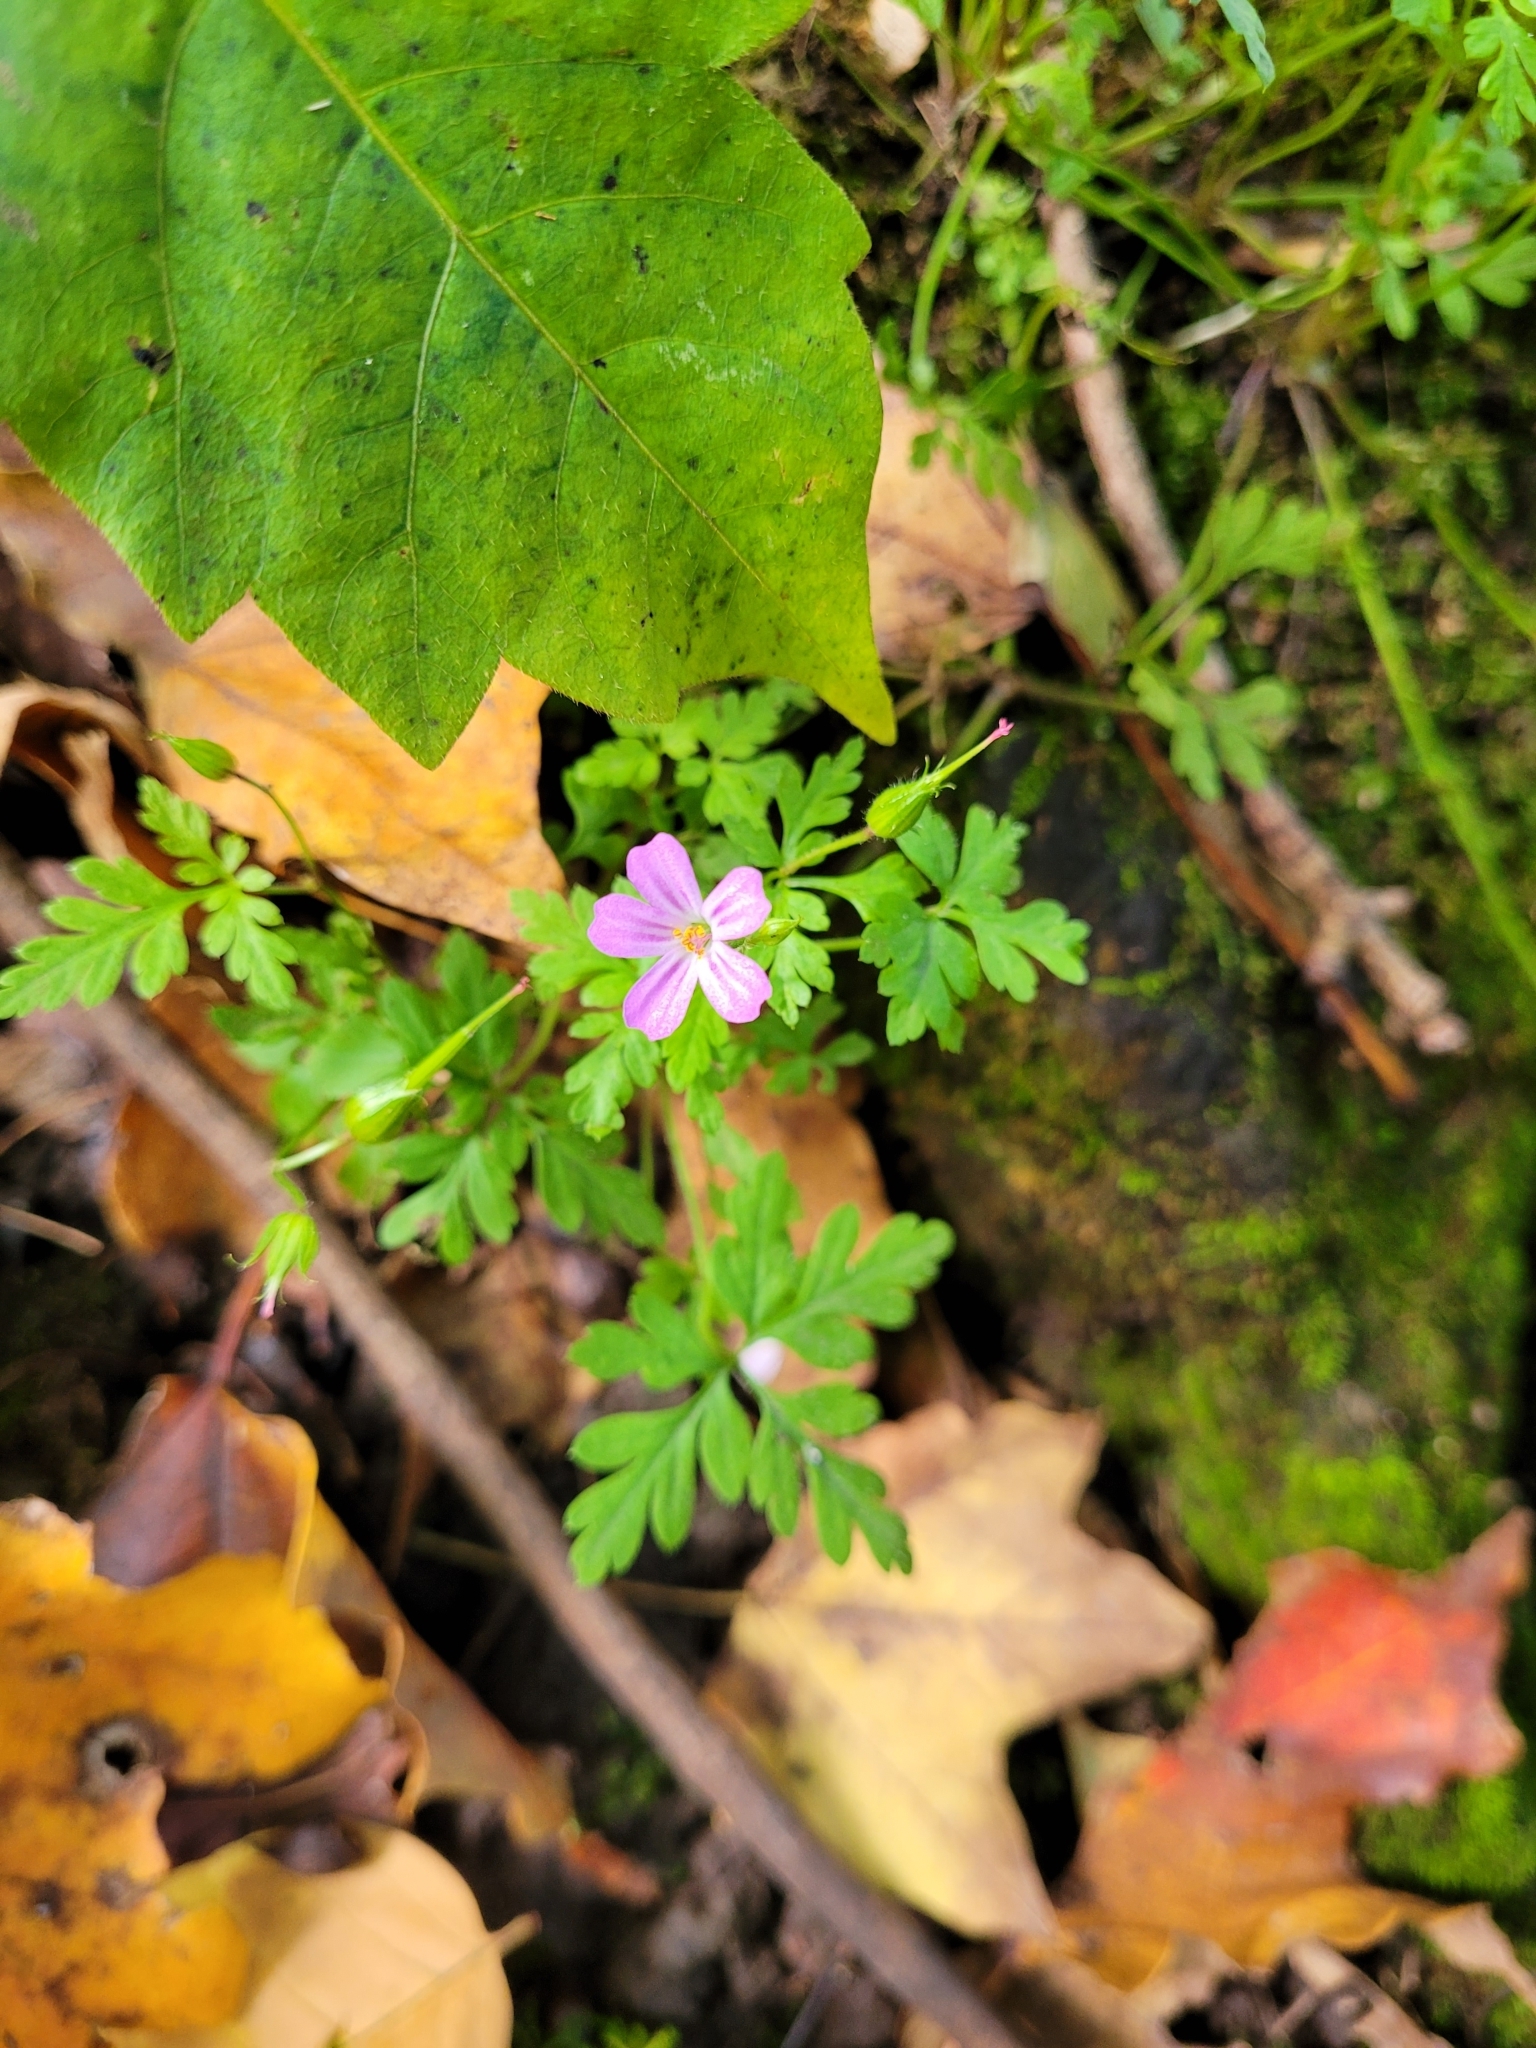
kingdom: Plantae
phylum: Tracheophyta
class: Magnoliopsida
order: Geraniales
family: Geraniaceae
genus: Geranium
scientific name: Geranium robertianum
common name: Herb-robert
